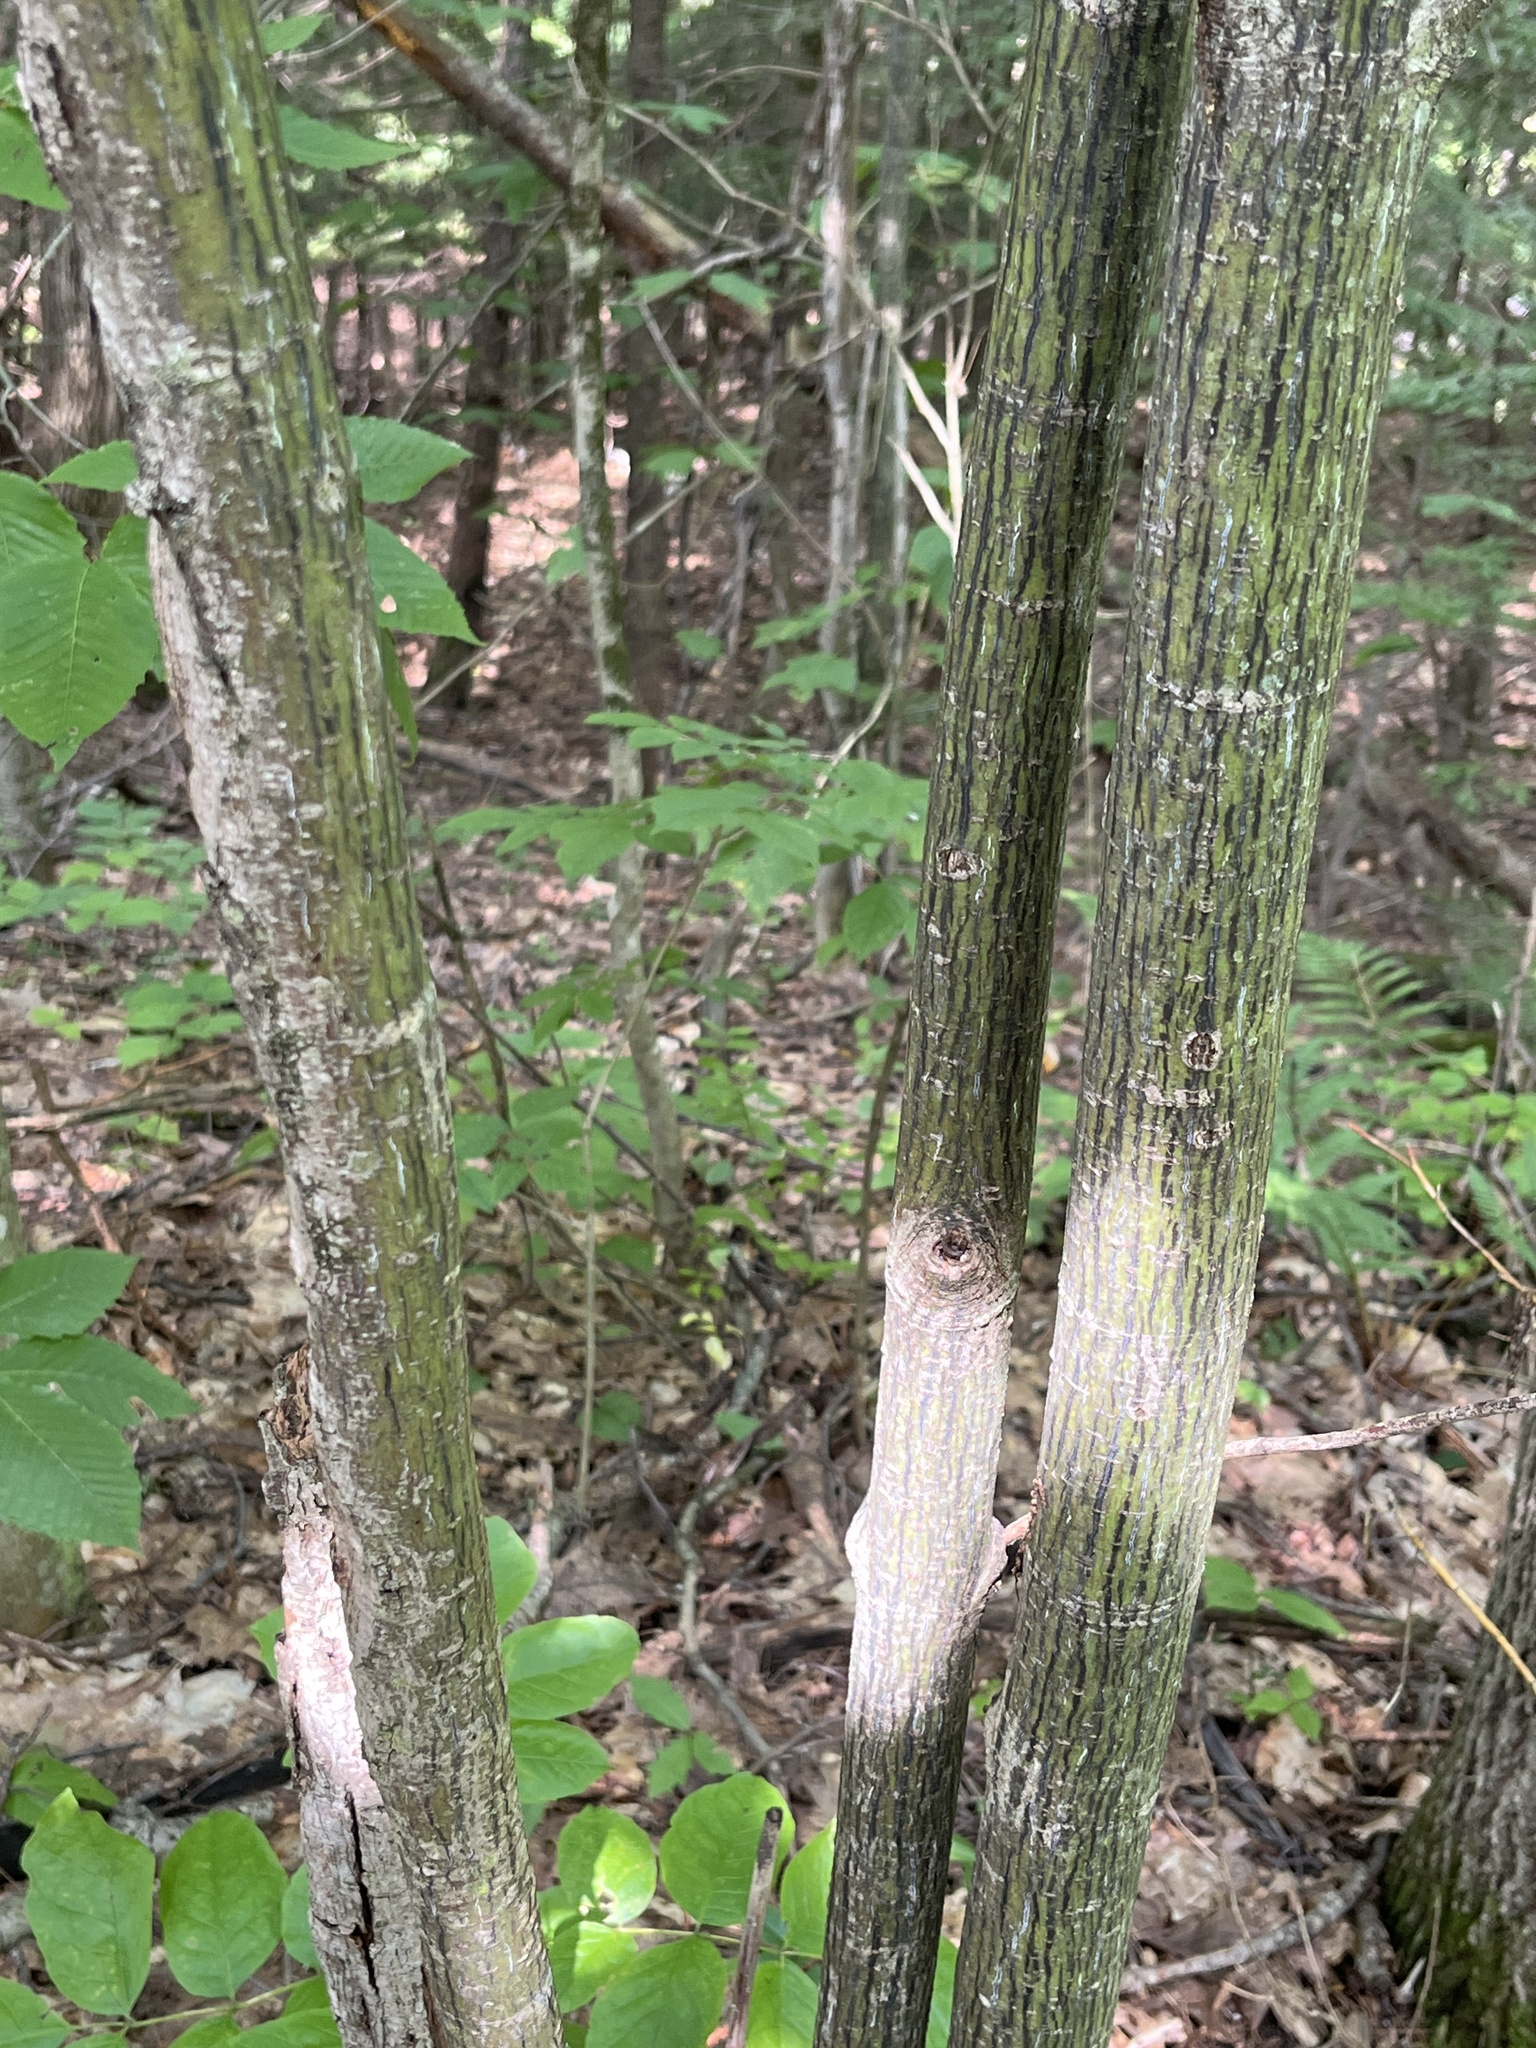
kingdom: Plantae
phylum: Tracheophyta
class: Magnoliopsida
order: Sapindales
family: Sapindaceae
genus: Acer
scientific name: Acer pensylvanicum
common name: Moosewood
